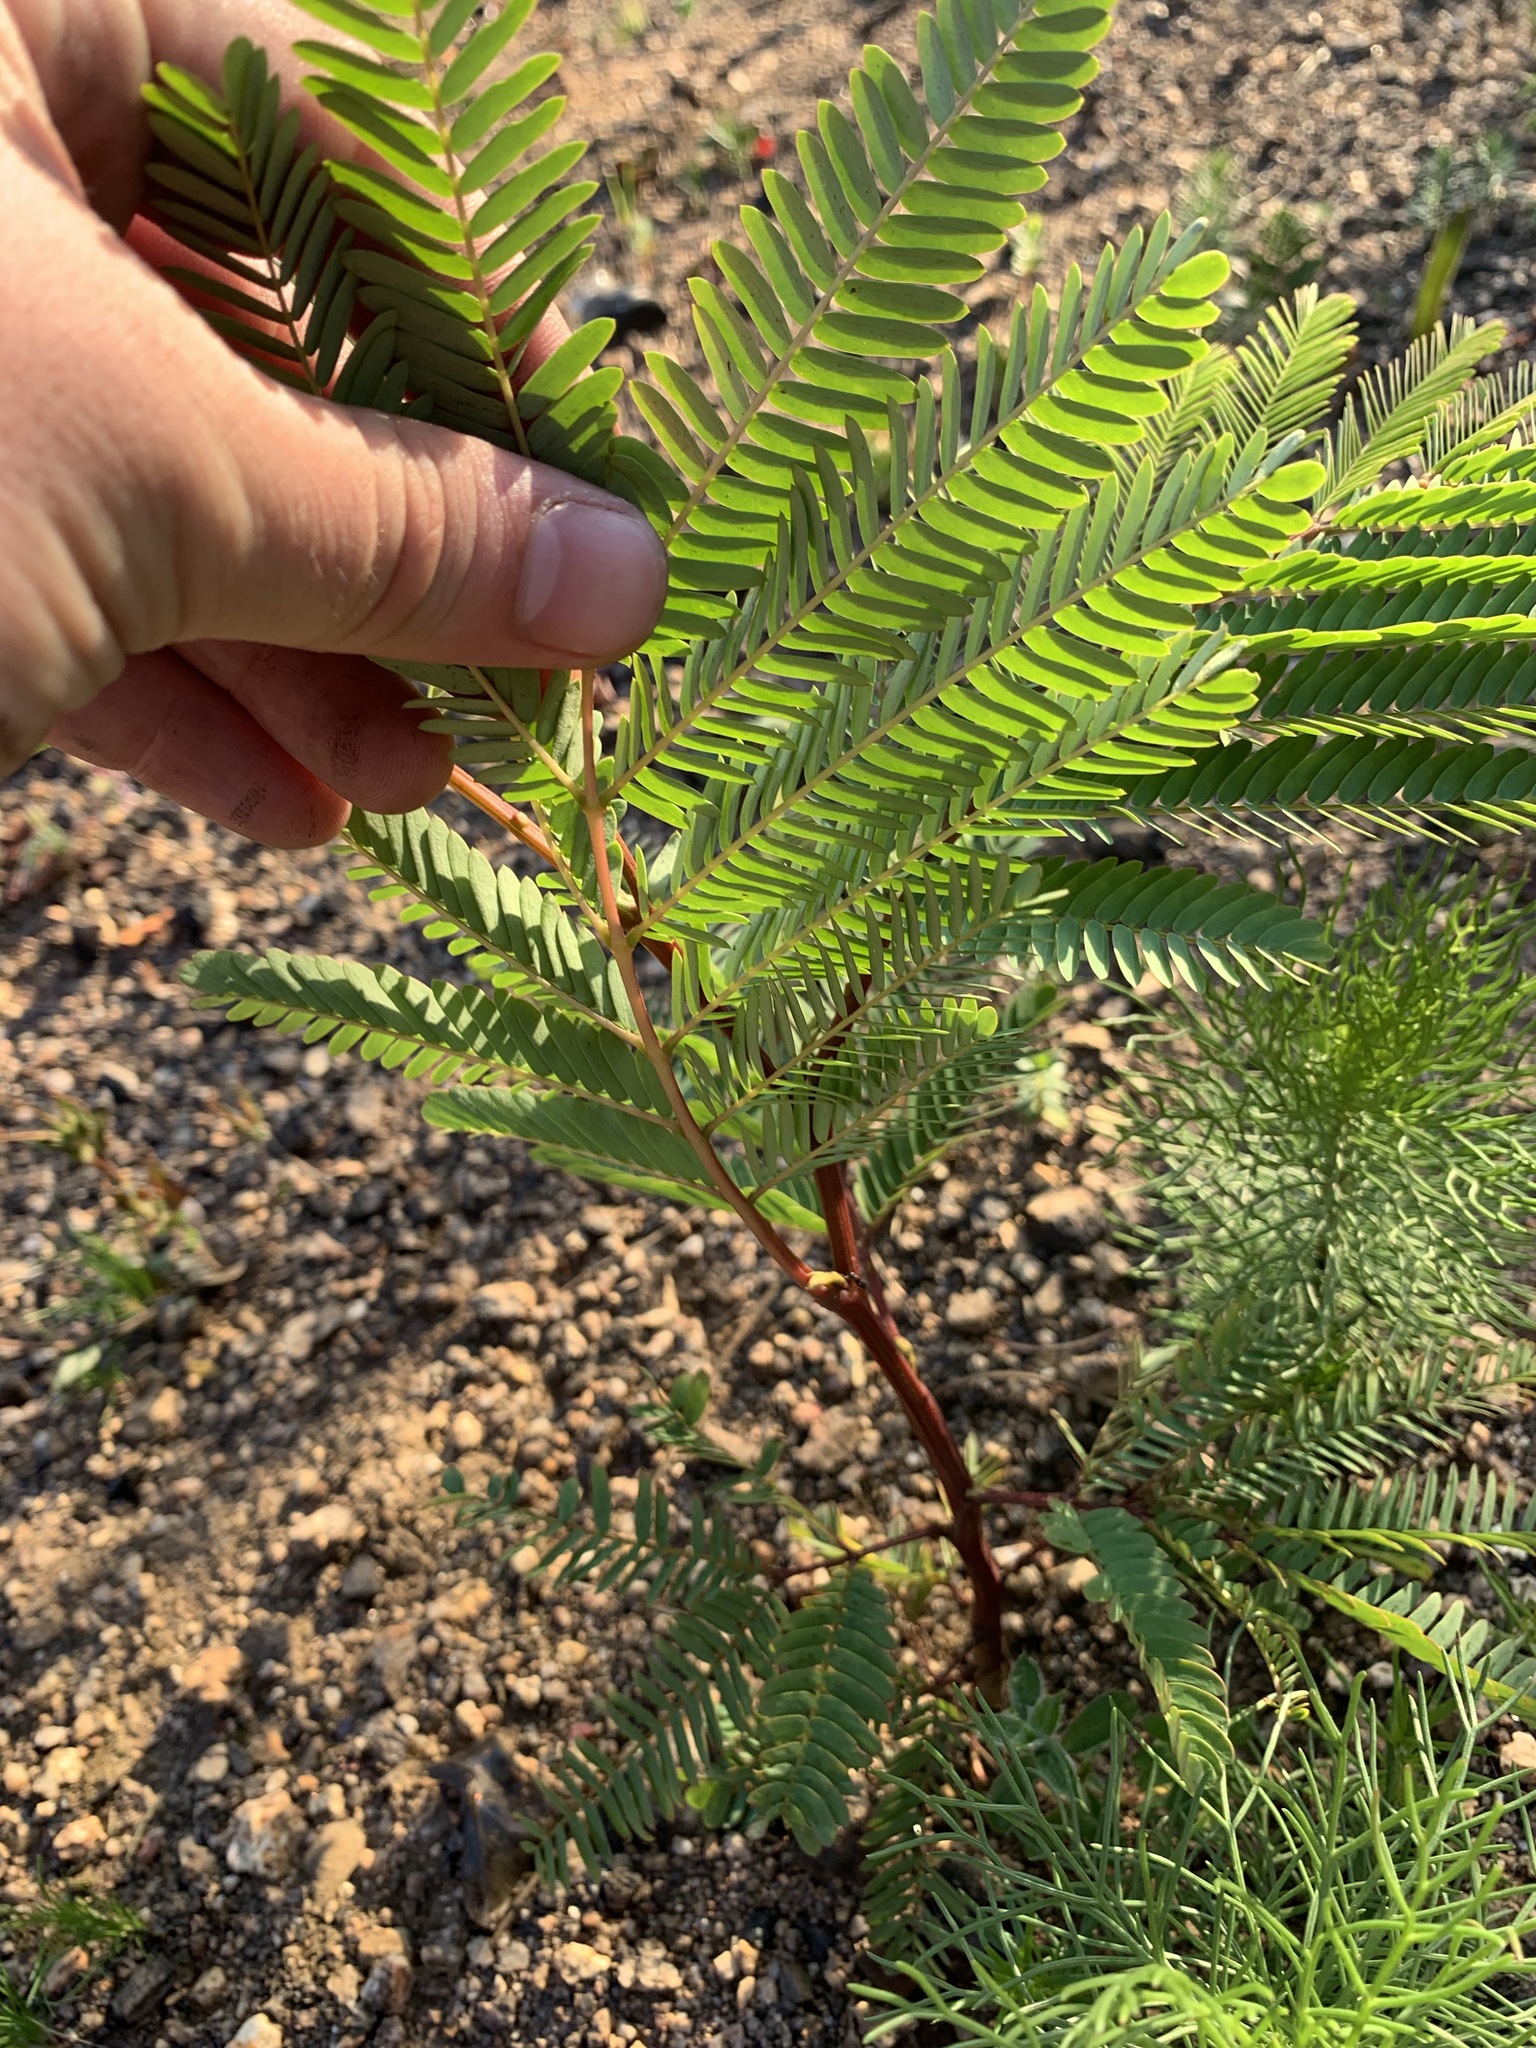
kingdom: Plantae
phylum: Tracheophyta
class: Magnoliopsida
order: Fabales
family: Fabaceae
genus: Paraserianthes
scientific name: Paraserianthes lophantha
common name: Plume albizia
